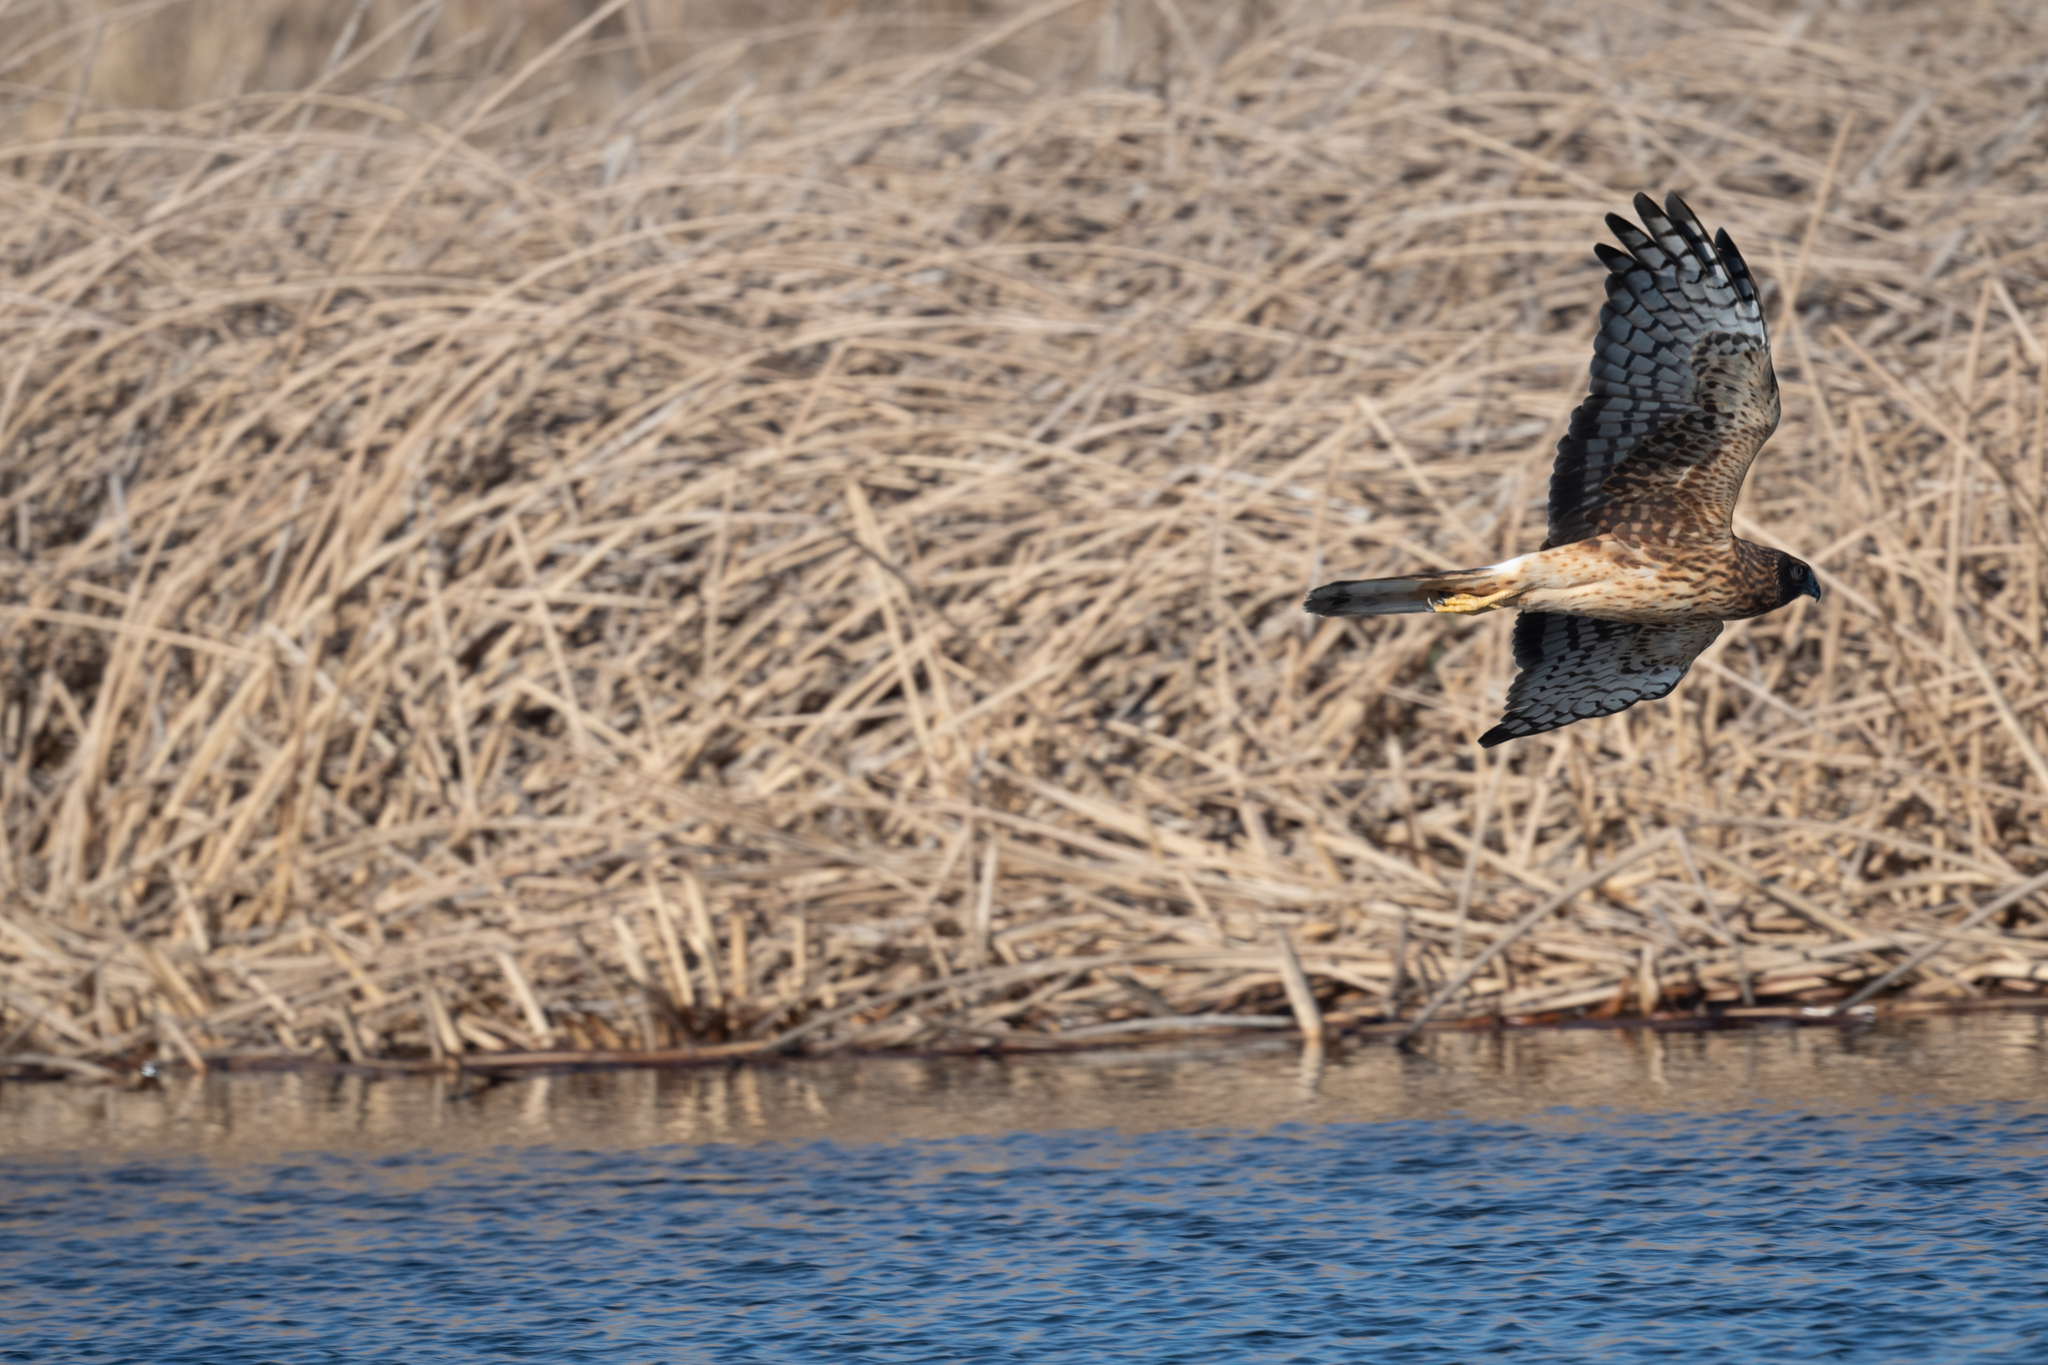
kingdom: Animalia
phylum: Chordata
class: Aves
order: Accipitriformes
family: Accipitridae
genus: Circus
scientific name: Circus cyaneus
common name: Hen harrier
